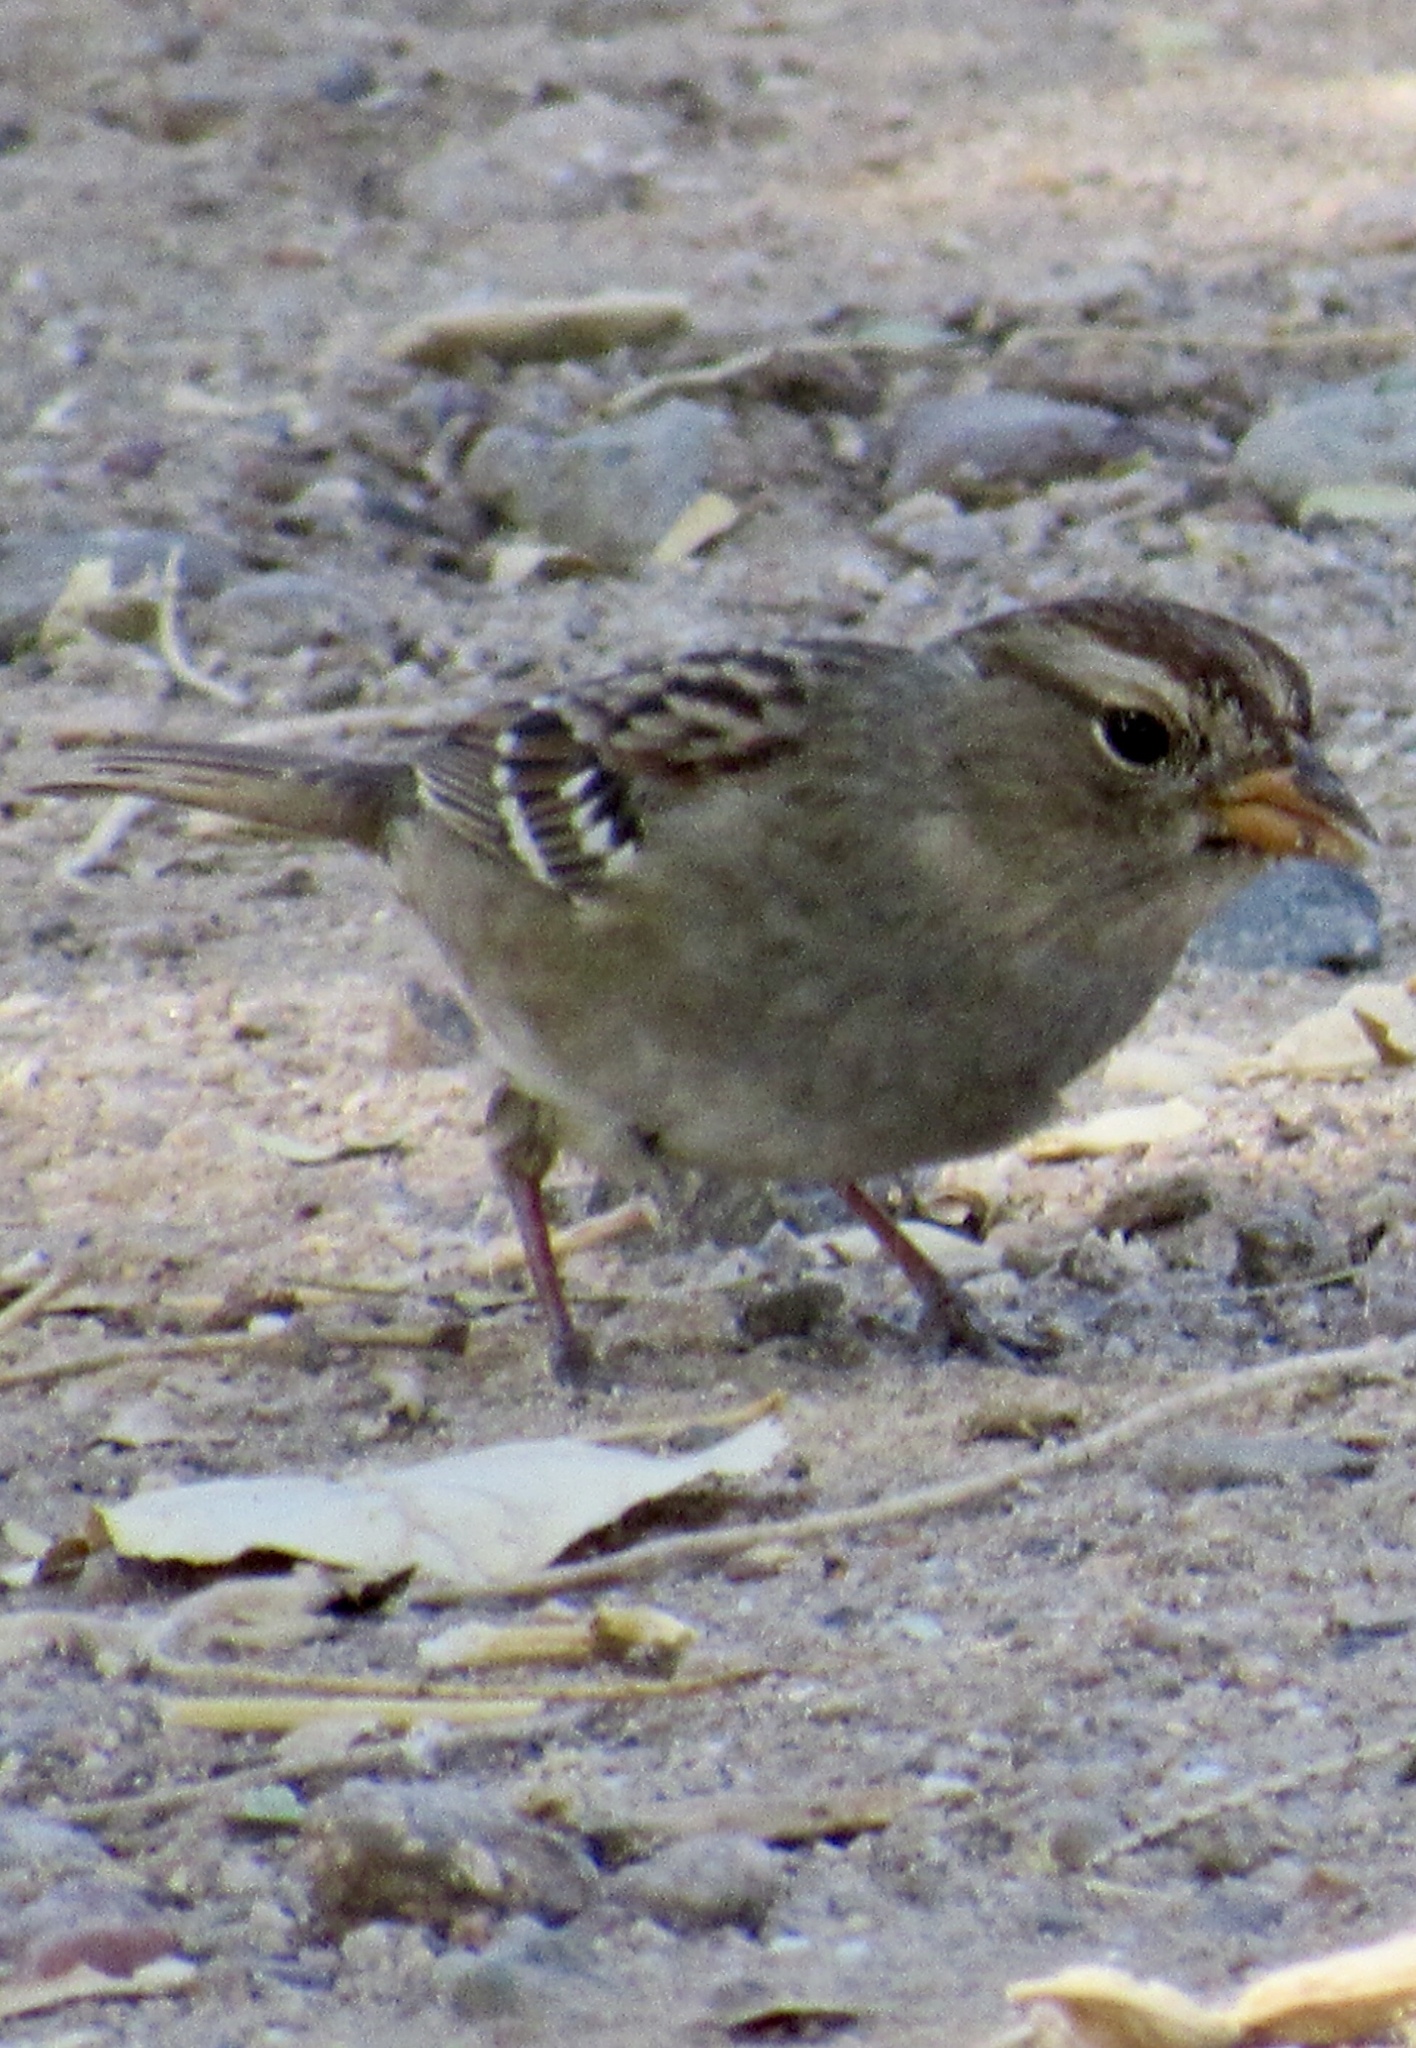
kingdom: Animalia
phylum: Chordata
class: Aves
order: Passeriformes
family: Passerellidae
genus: Zonotrichia
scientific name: Zonotrichia leucophrys
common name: White-crowned sparrow
